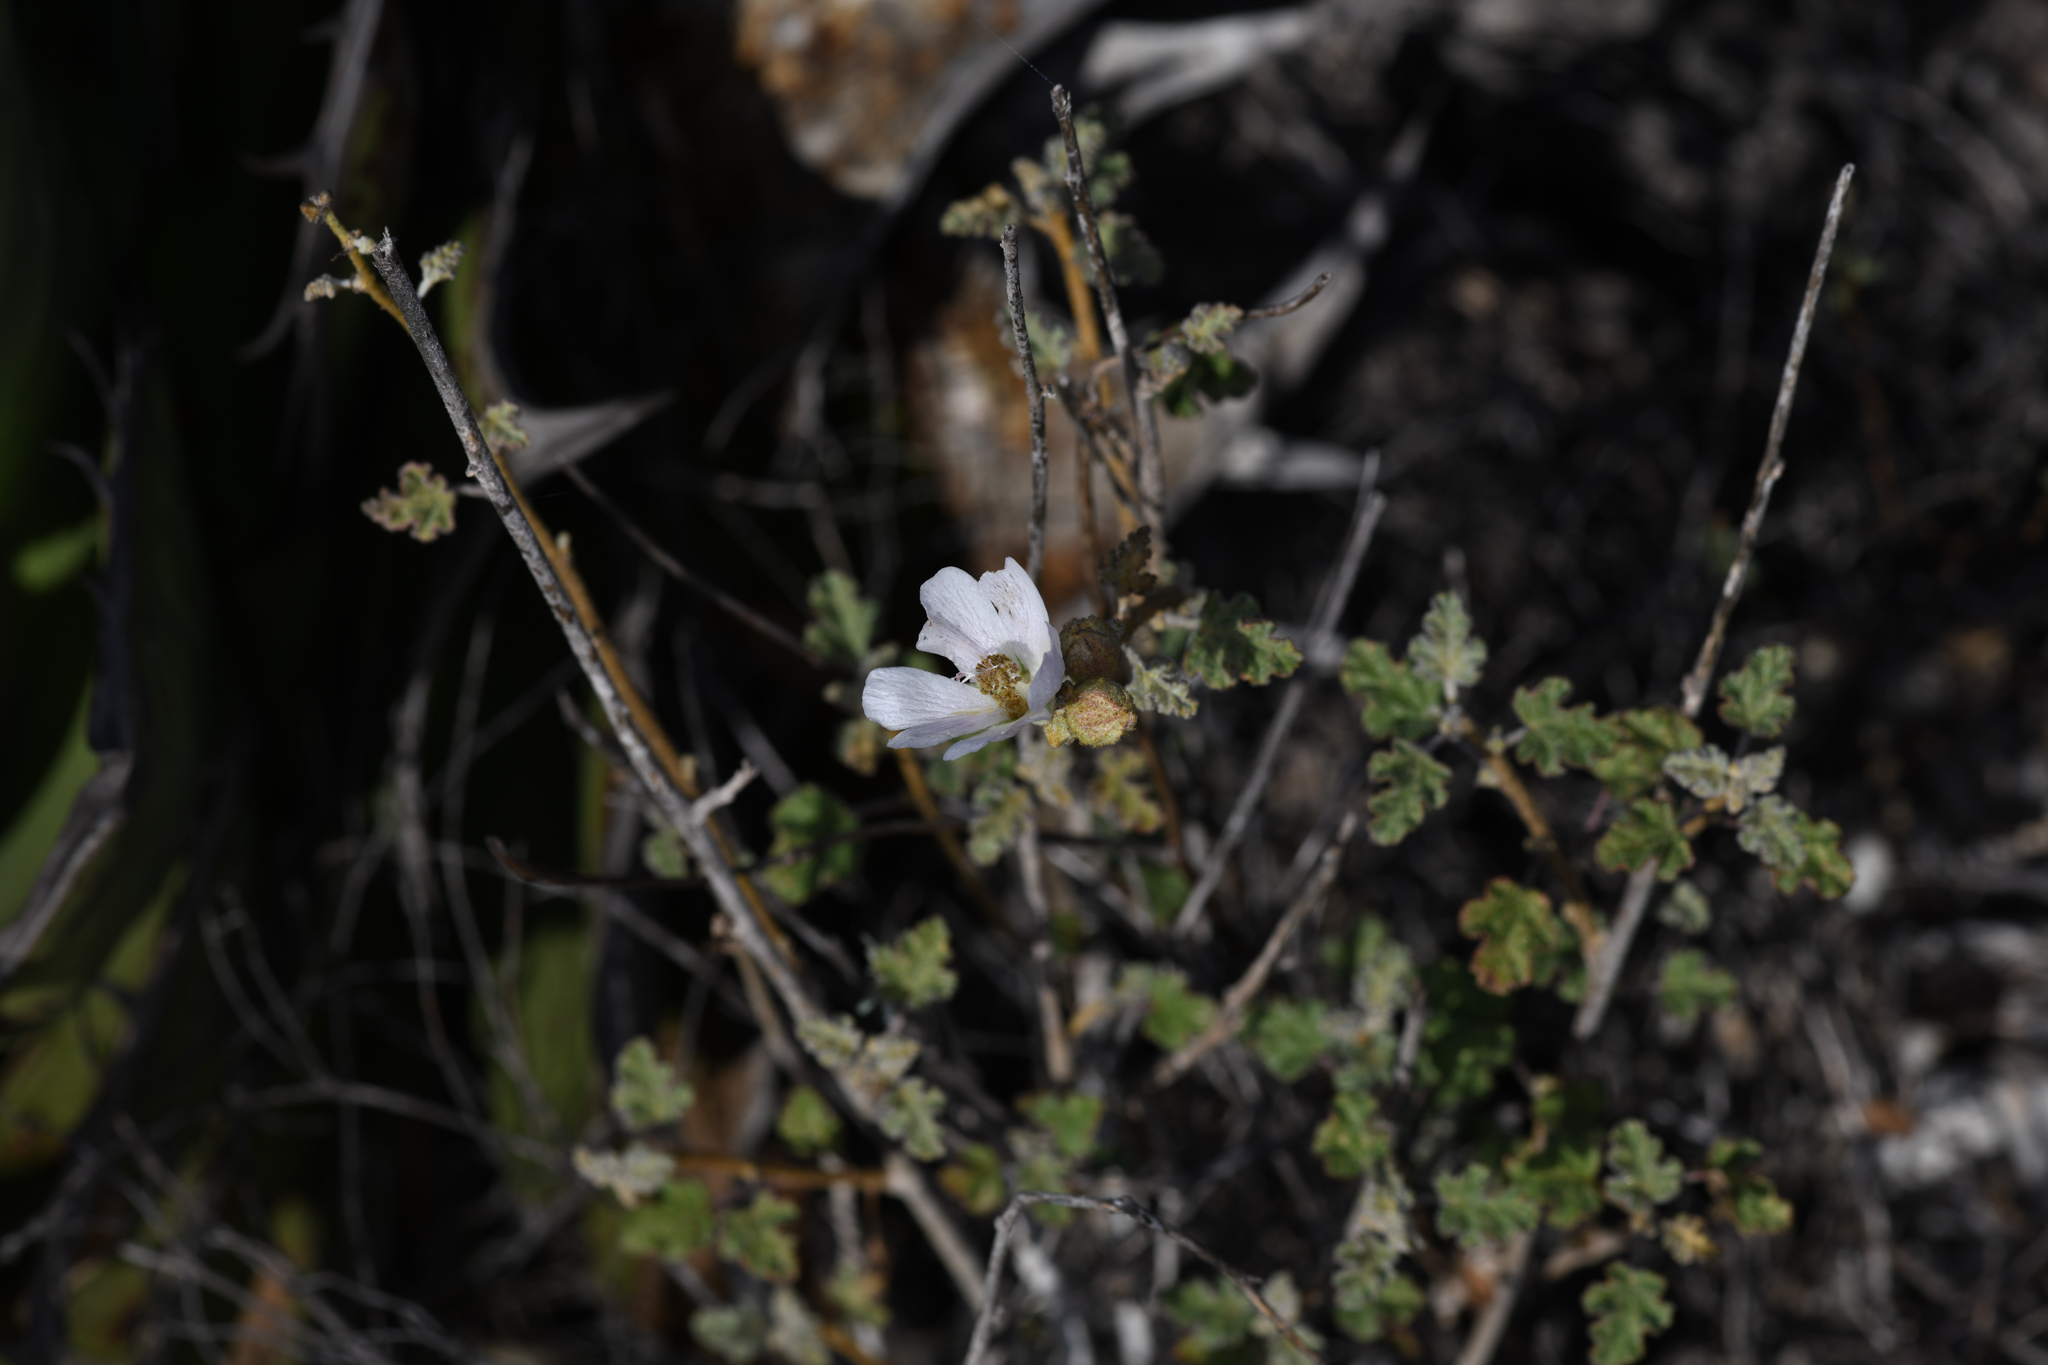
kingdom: Plantae
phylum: Tracheophyta
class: Magnoliopsida
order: Malvales
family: Malvaceae
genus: Sphaeralcea
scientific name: Sphaeralcea fulva
